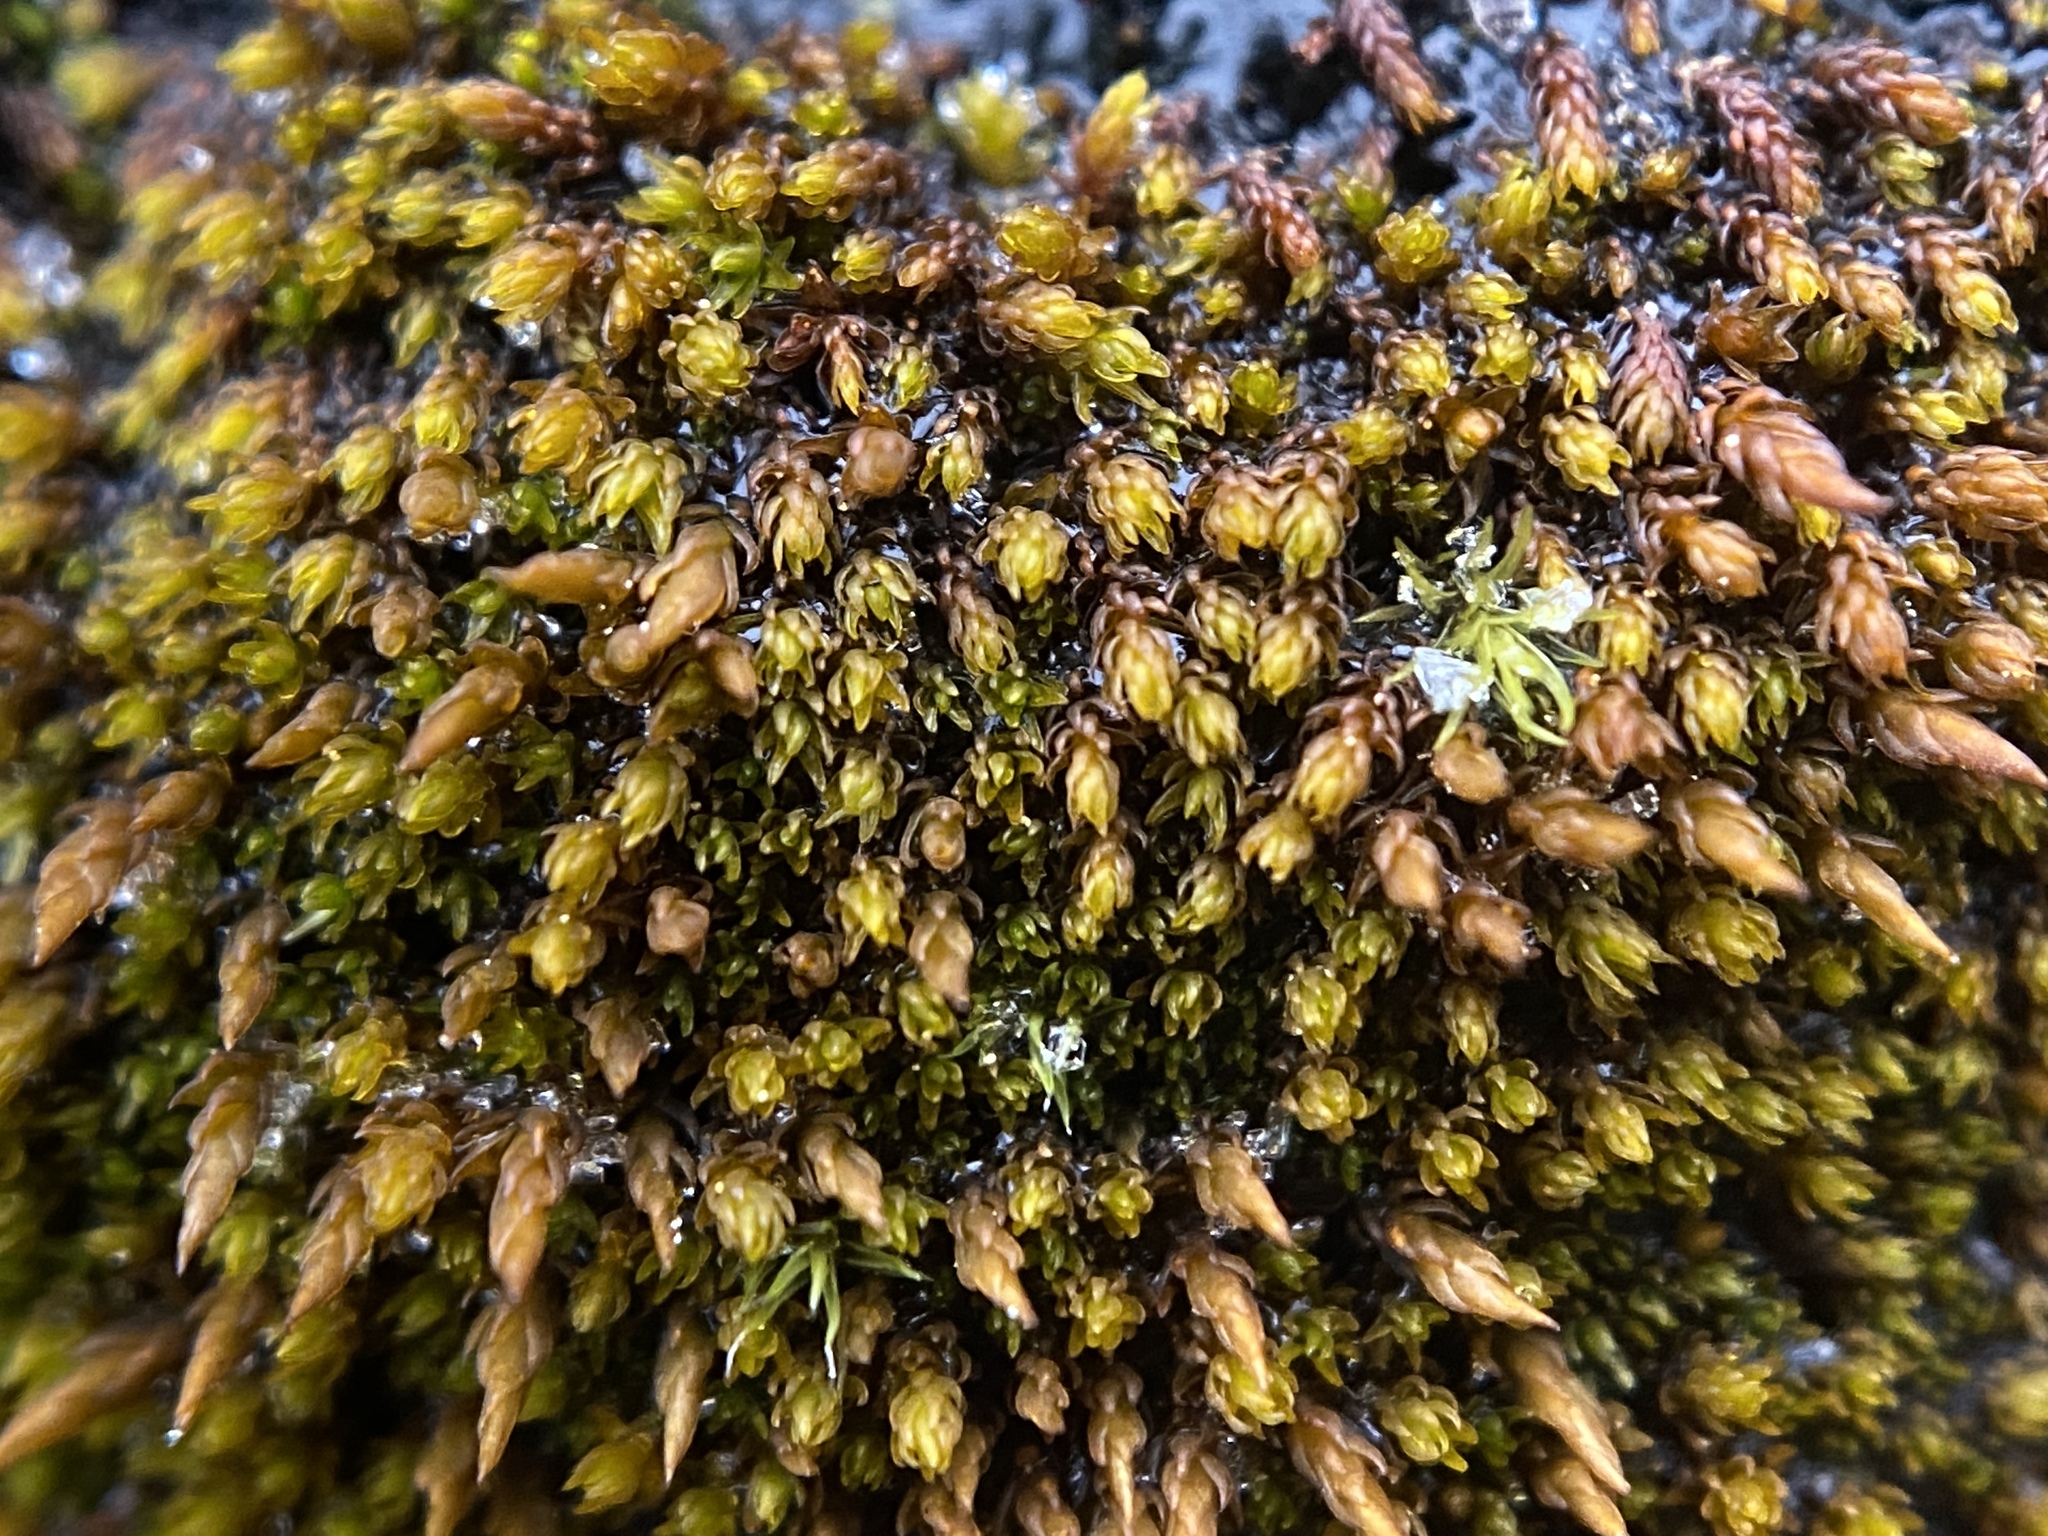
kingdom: Plantae
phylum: Bryophyta
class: Andreaeopsida
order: Andreaeales
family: Andreaeaceae
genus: Andreaea
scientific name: Andreaea rupestris
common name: Black rock moss
